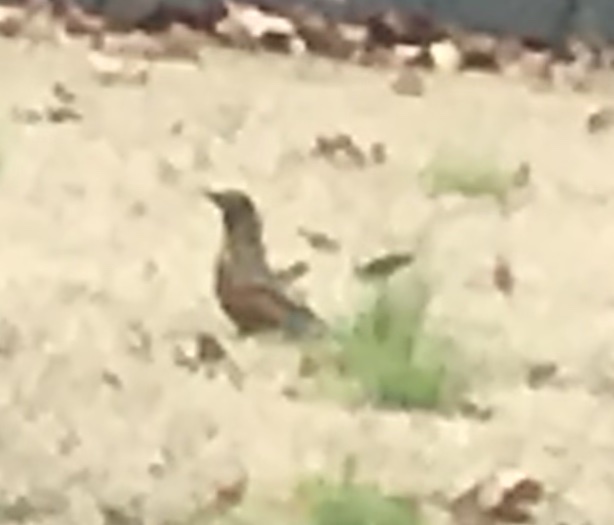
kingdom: Animalia
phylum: Chordata
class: Aves
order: Passeriformes
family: Turdidae
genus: Turdus
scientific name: Turdus migratorius
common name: American robin
